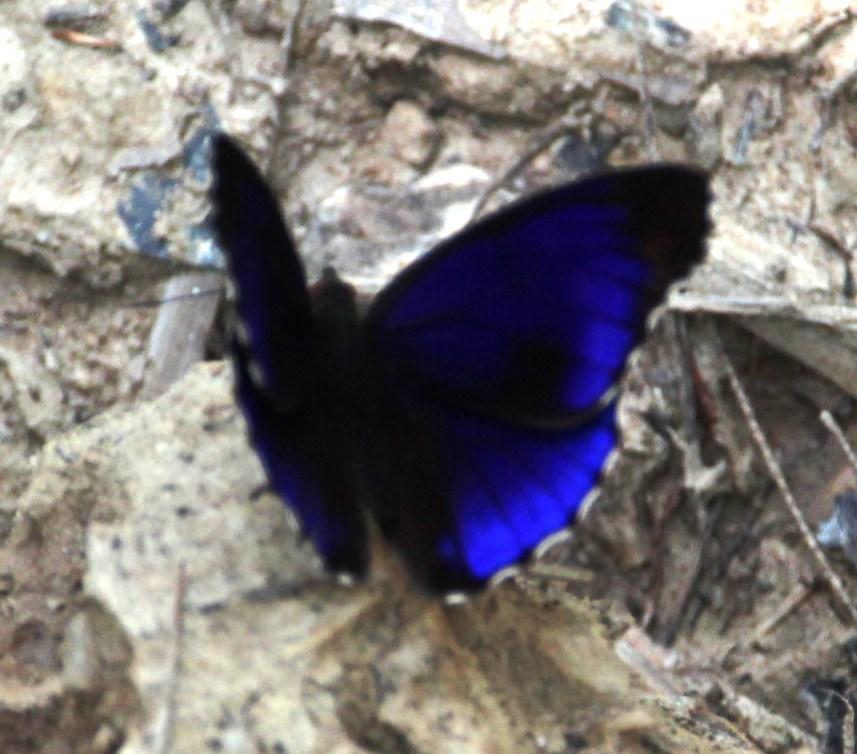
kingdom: Animalia
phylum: Arthropoda
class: Insecta
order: Lepidoptera
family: Nymphalidae
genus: Eunica
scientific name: Eunica alpais
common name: Shining purplewing
